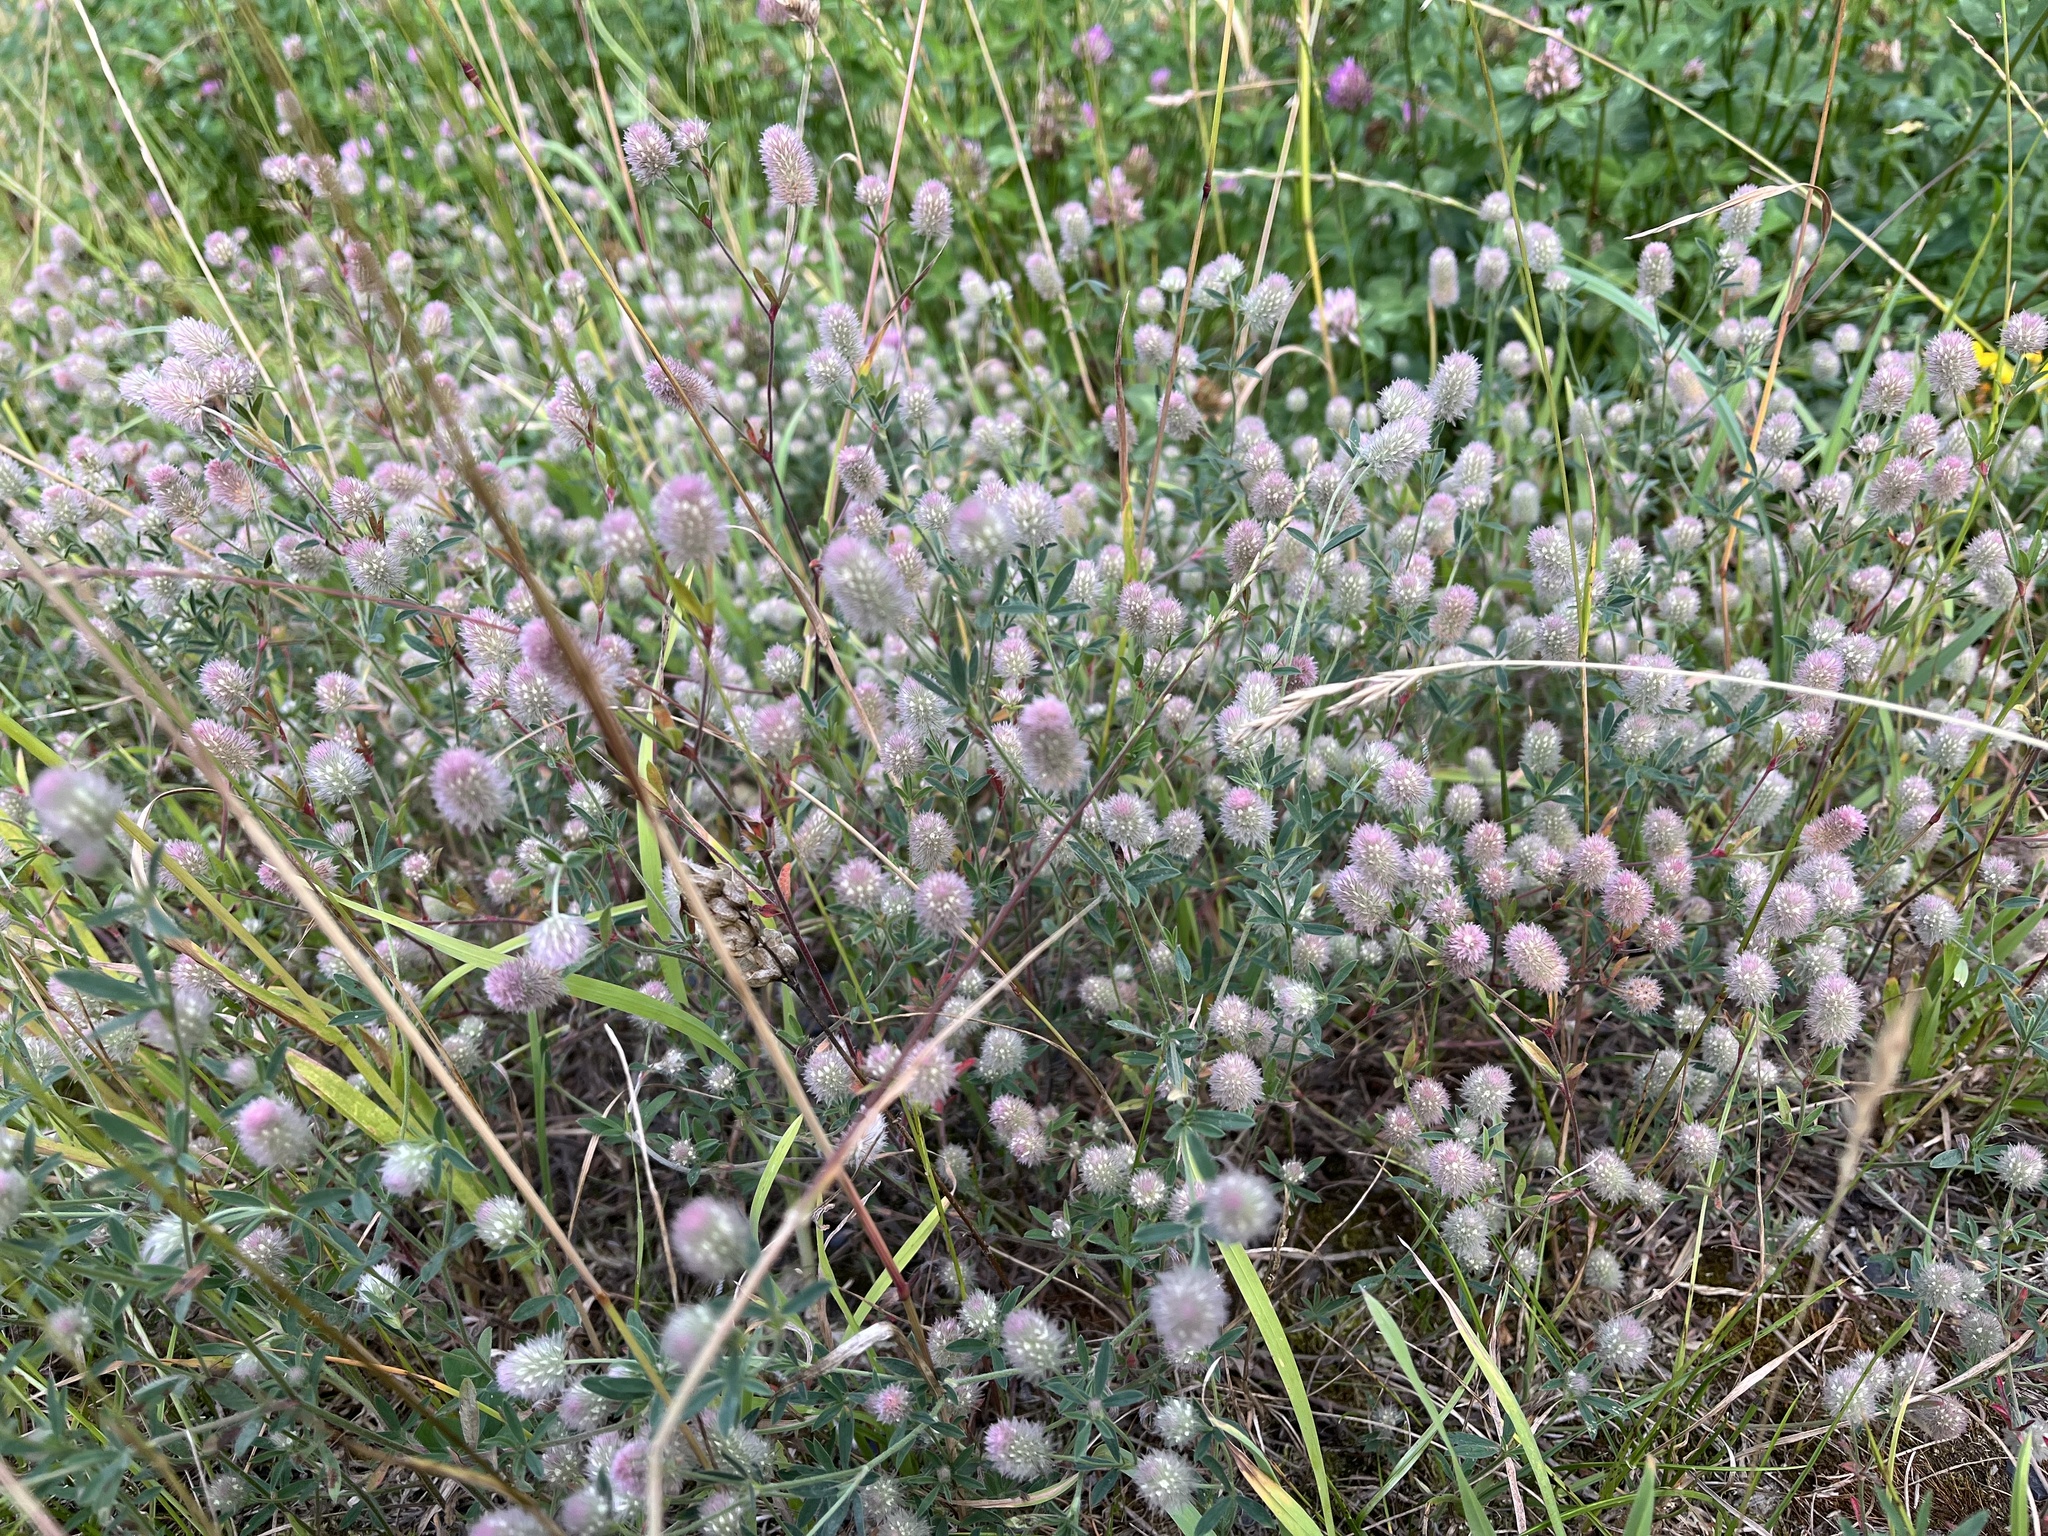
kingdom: Plantae
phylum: Tracheophyta
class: Magnoliopsida
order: Fabales
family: Fabaceae
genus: Trifolium
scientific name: Trifolium arvense
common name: Hare's-foot clover
